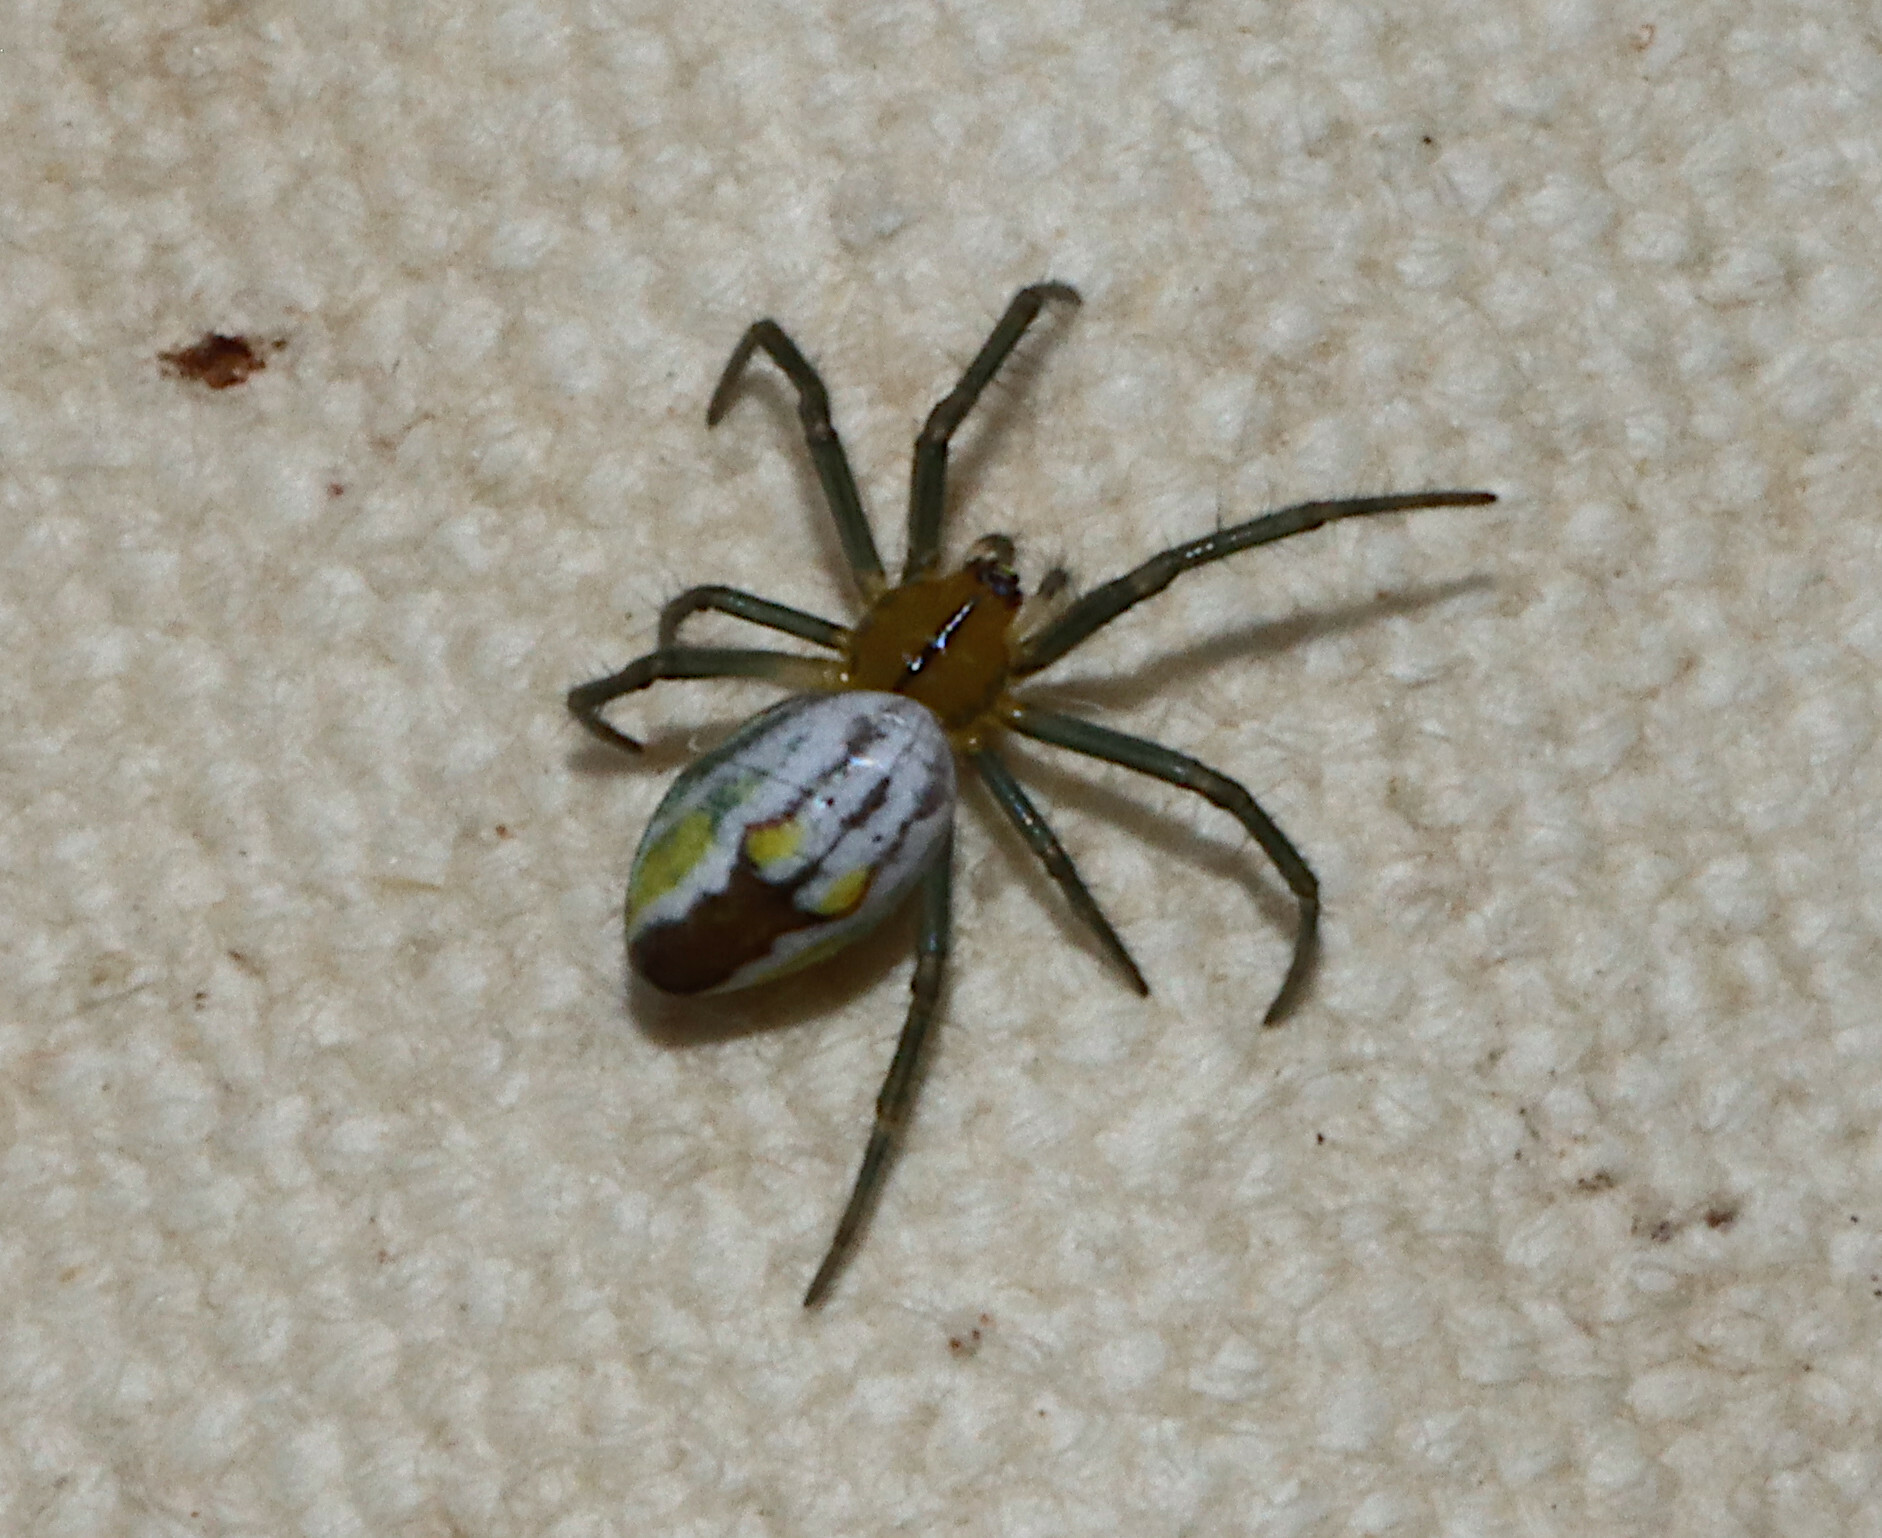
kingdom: Animalia
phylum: Arthropoda
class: Arachnida
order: Araneae
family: Araneidae
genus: Mecynogea
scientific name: Mecynogea lemniscata
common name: Orb weavers
